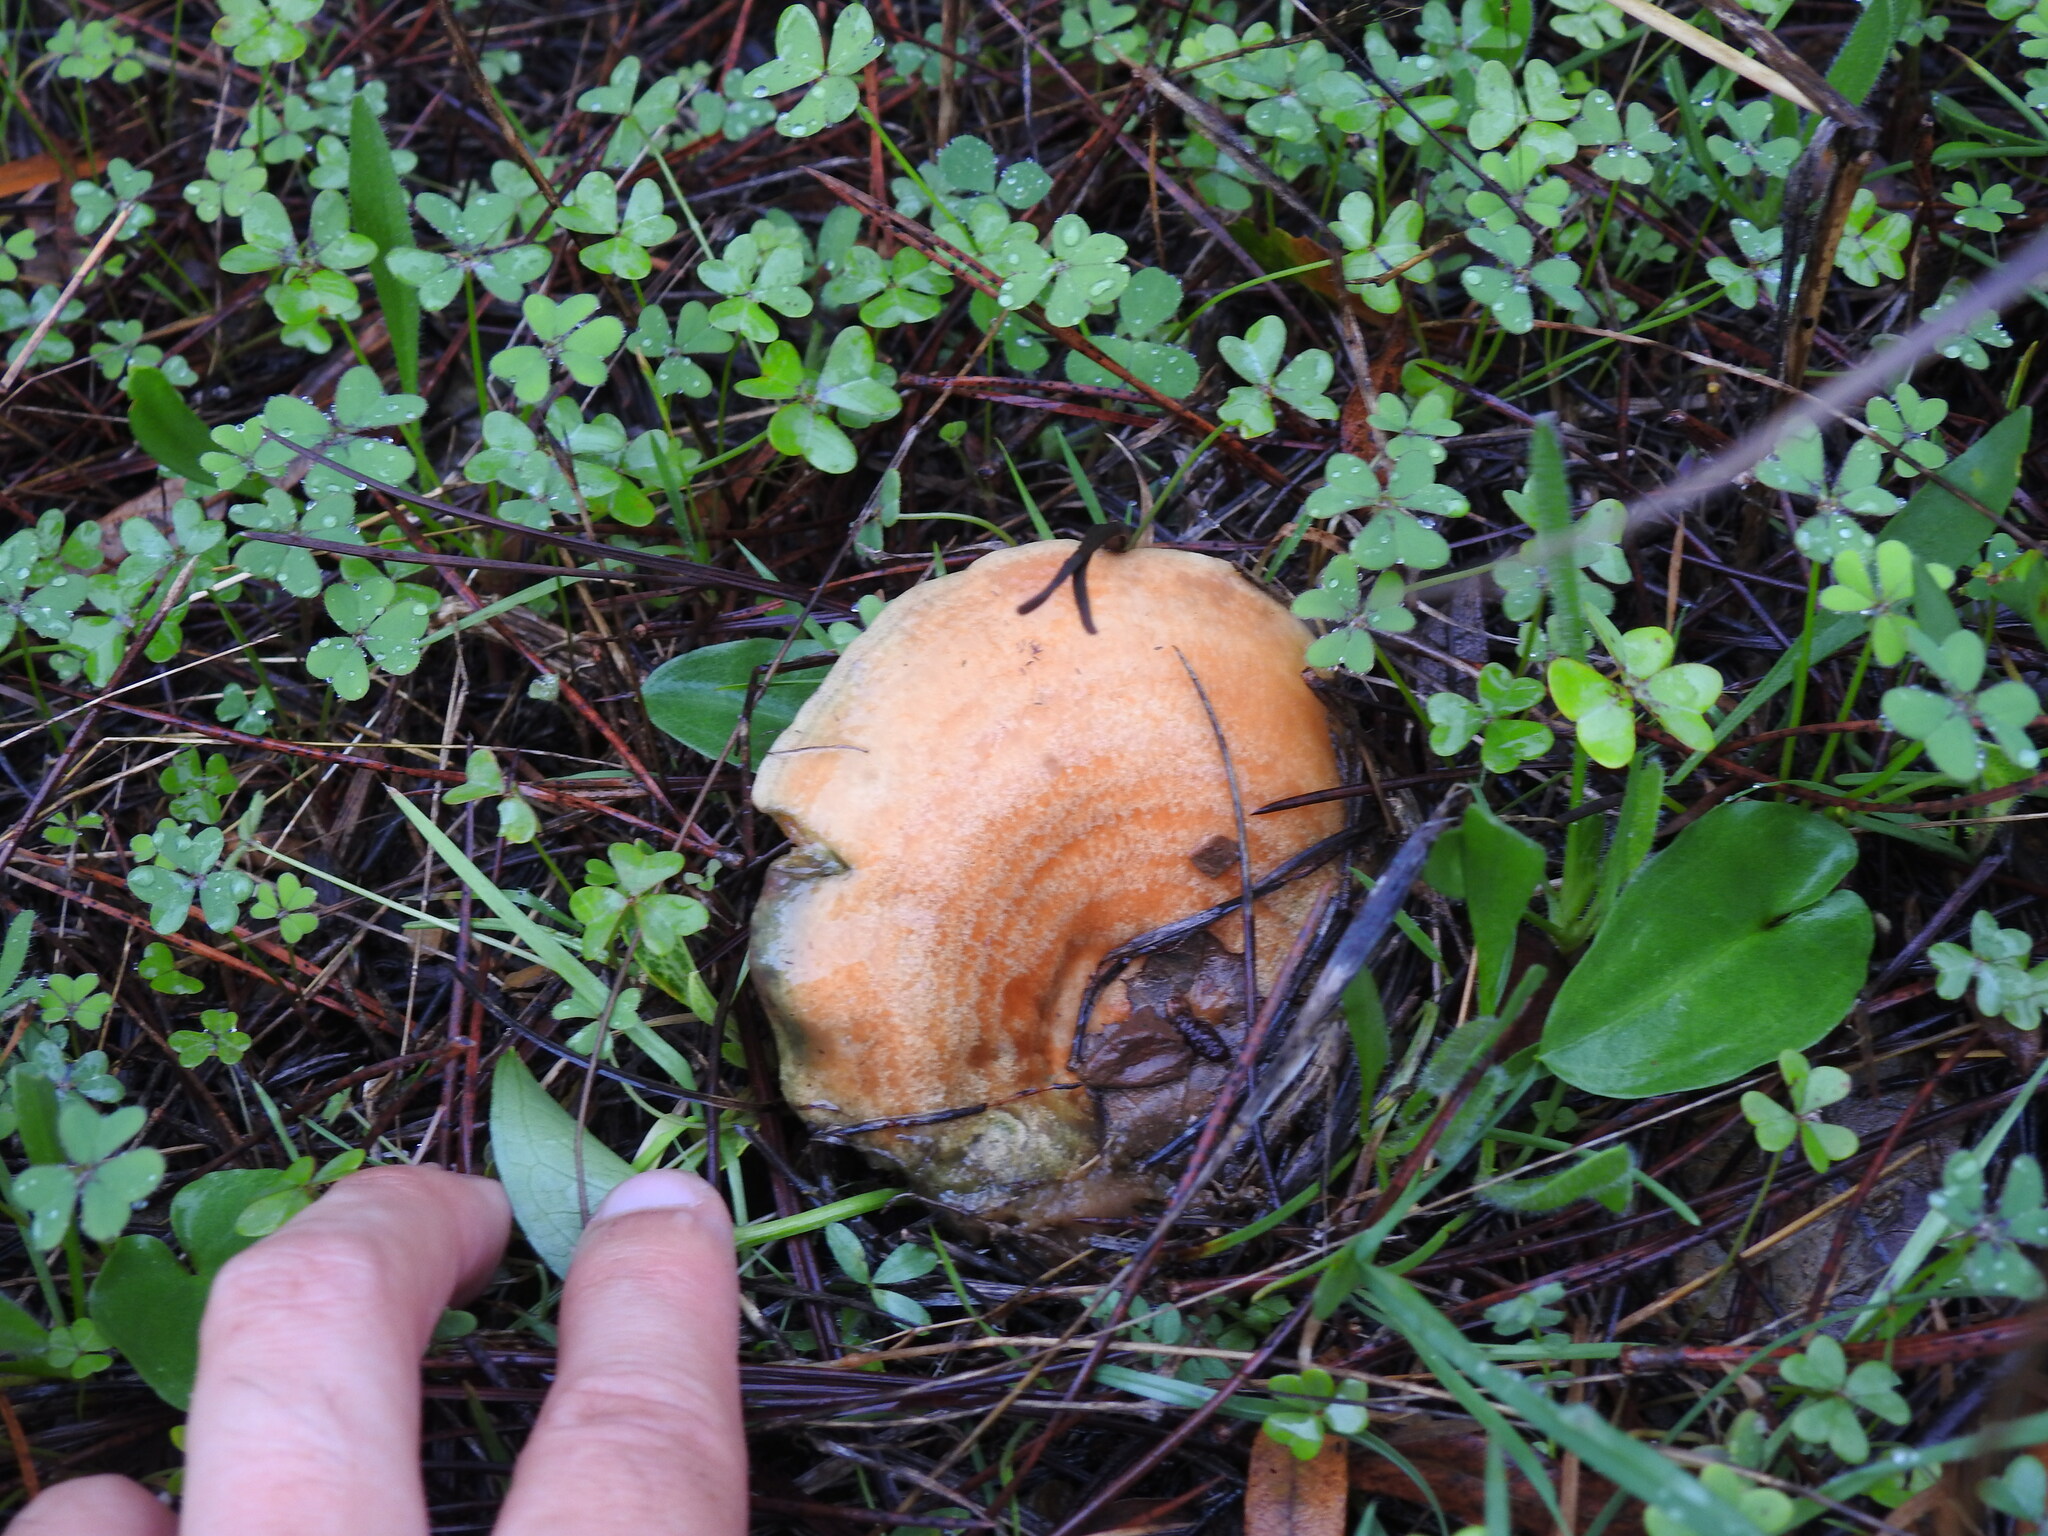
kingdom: Fungi
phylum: Basidiomycota
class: Agaricomycetes
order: Russulales
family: Russulaceae
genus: Lactarius
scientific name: Lactarius deliciosus
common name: Saffron milk-cap
